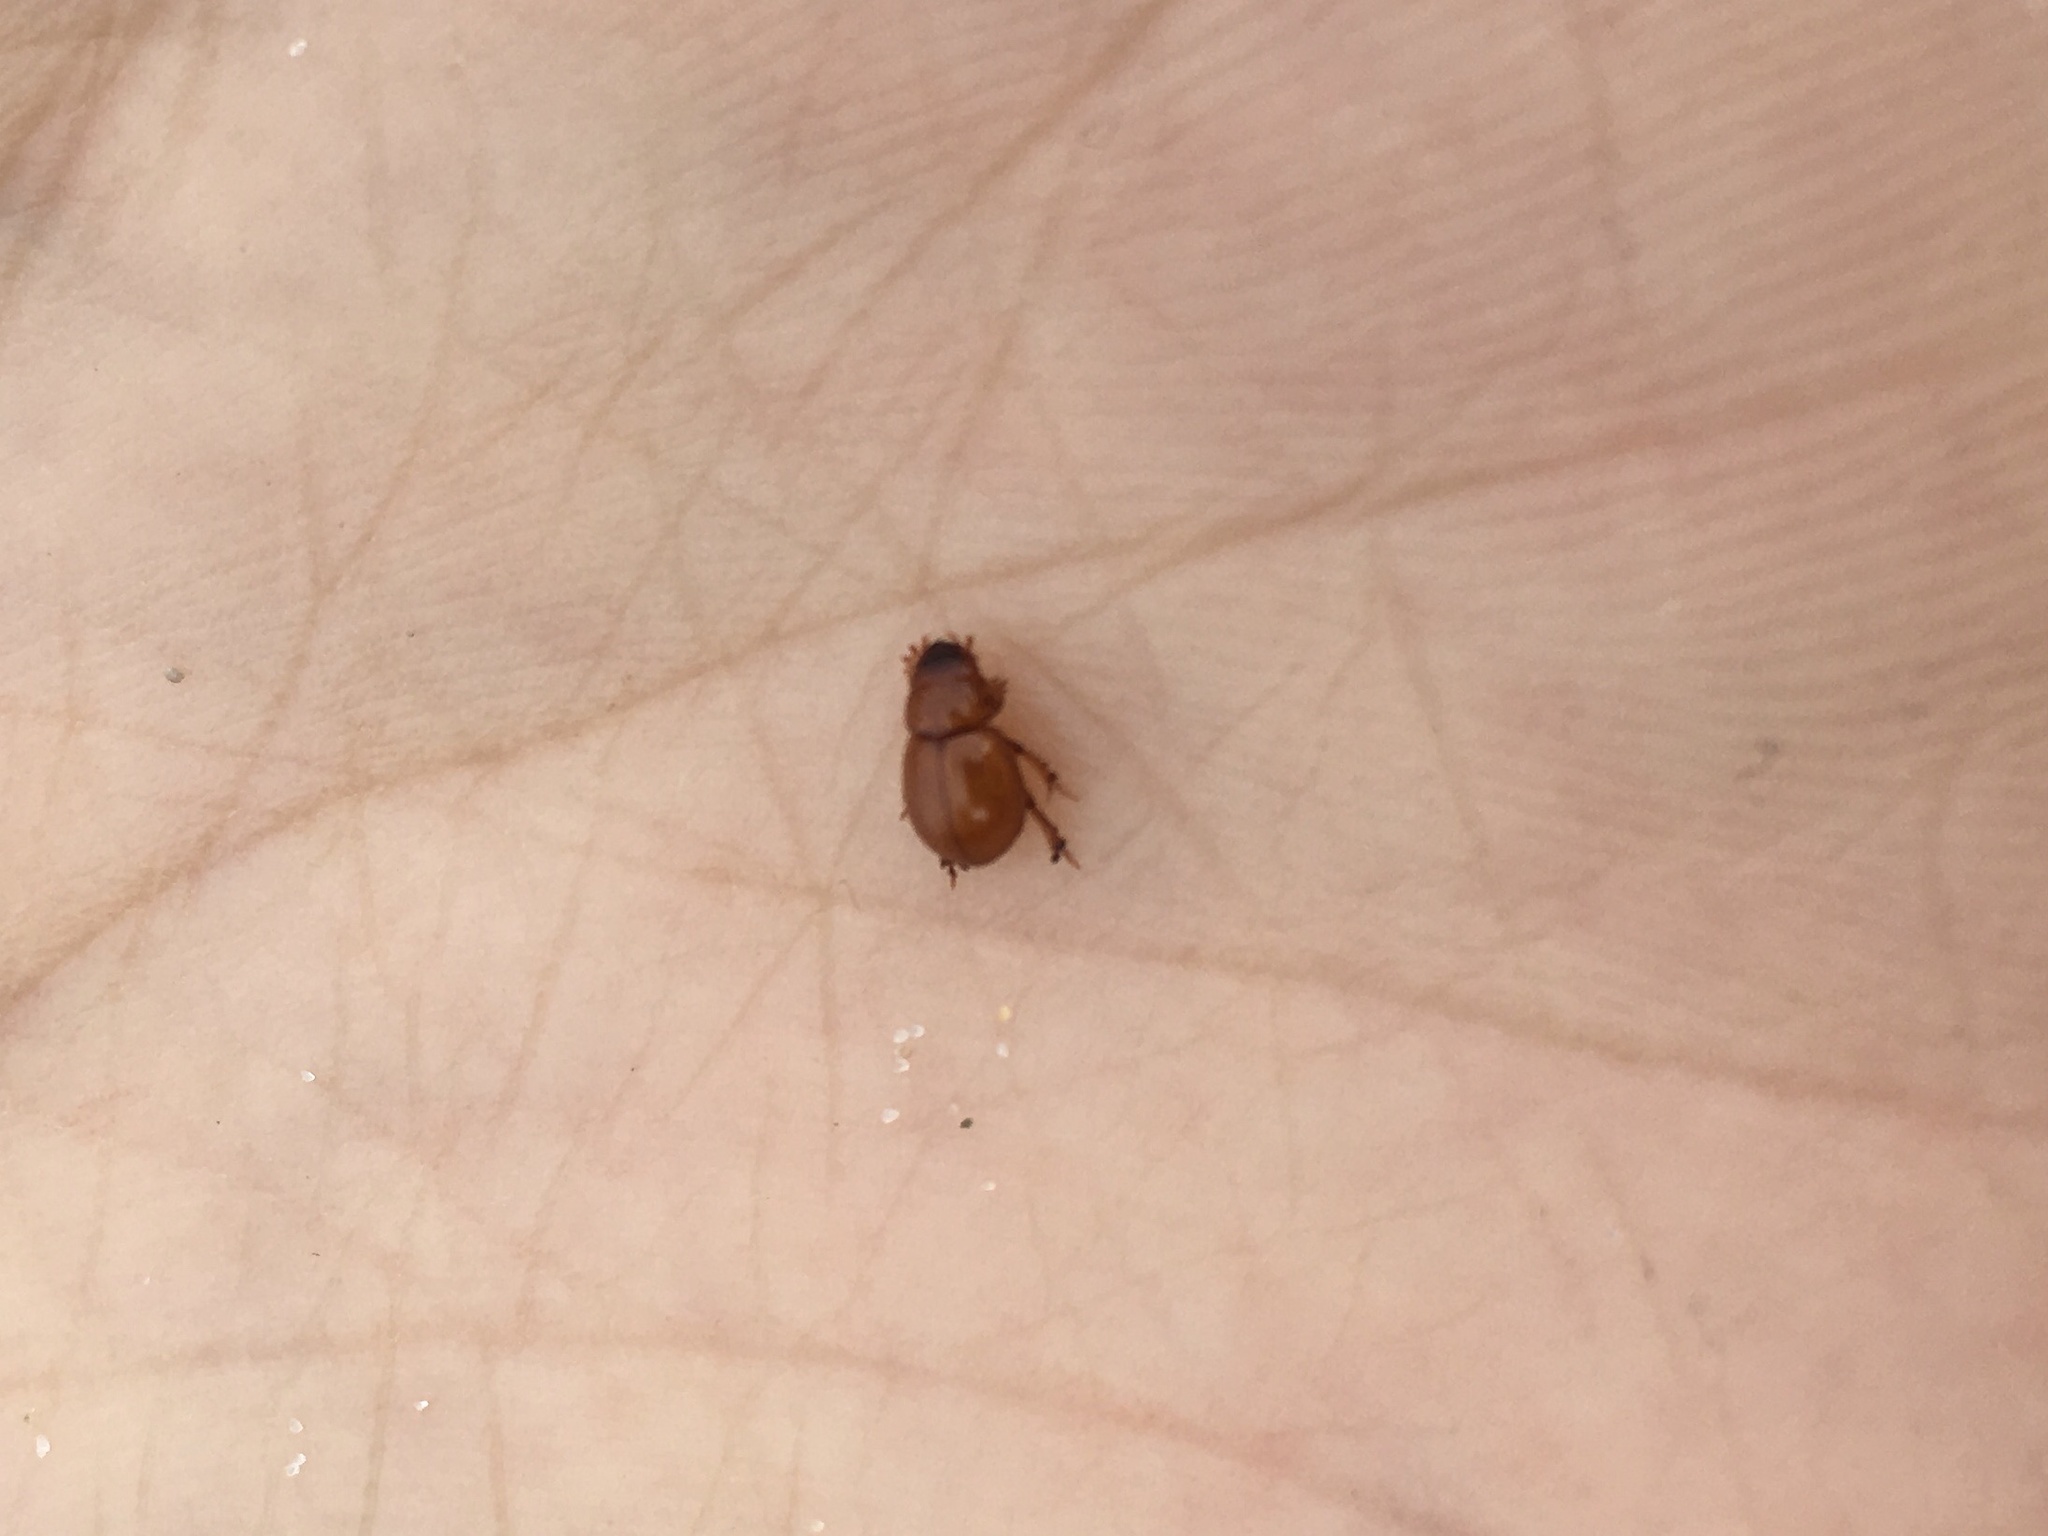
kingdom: Animalia
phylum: Arthropoda
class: Insecta
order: Coleoptera
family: Scarabaeidae
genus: Aegialia
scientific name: Aegialia arenaria
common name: Dune sand scarab beetle
